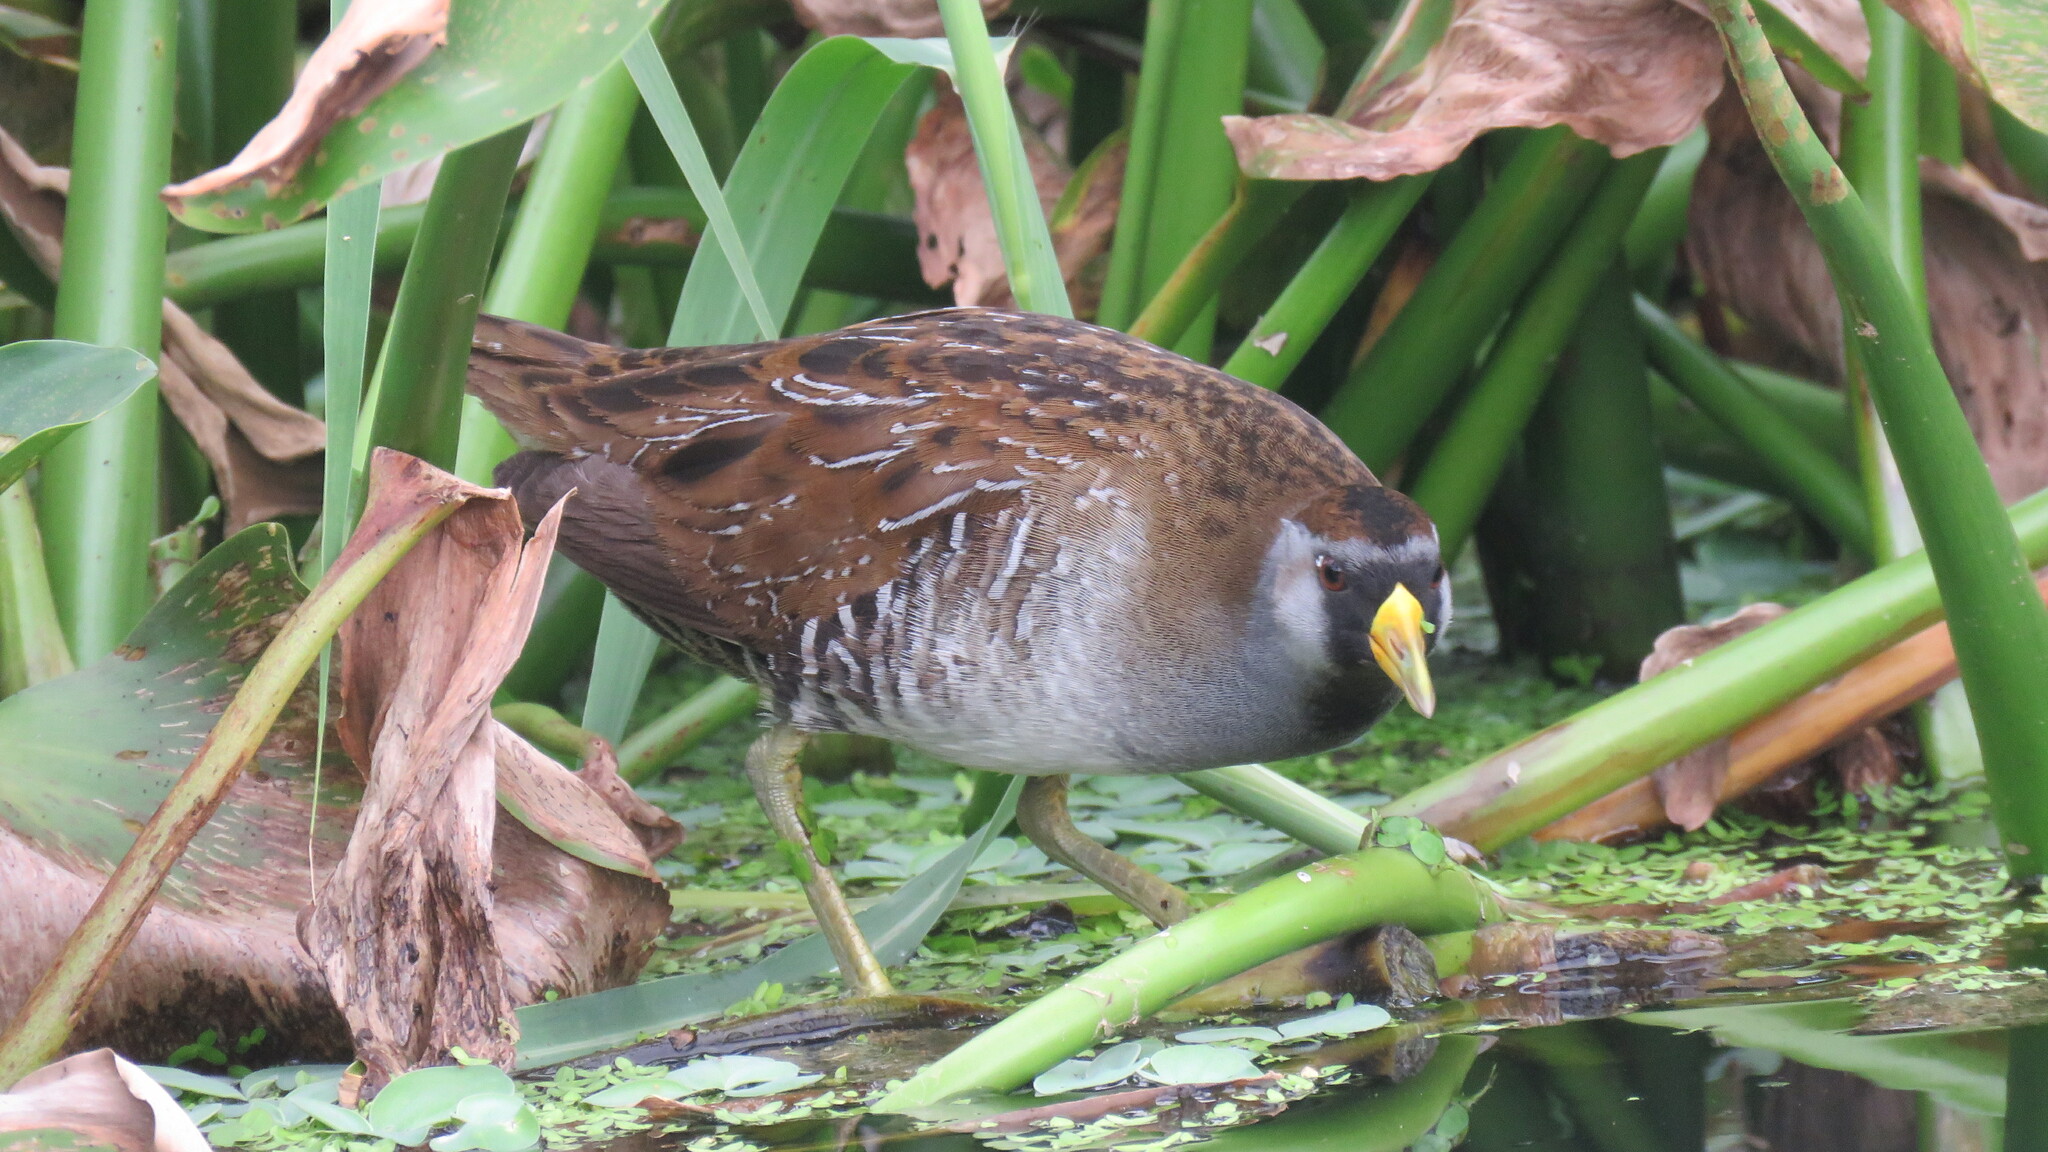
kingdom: Animalia
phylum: Chordata
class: Aves
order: Gruiformes
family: Rallidae
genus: Porzana
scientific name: Porzana carolina
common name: Sora
